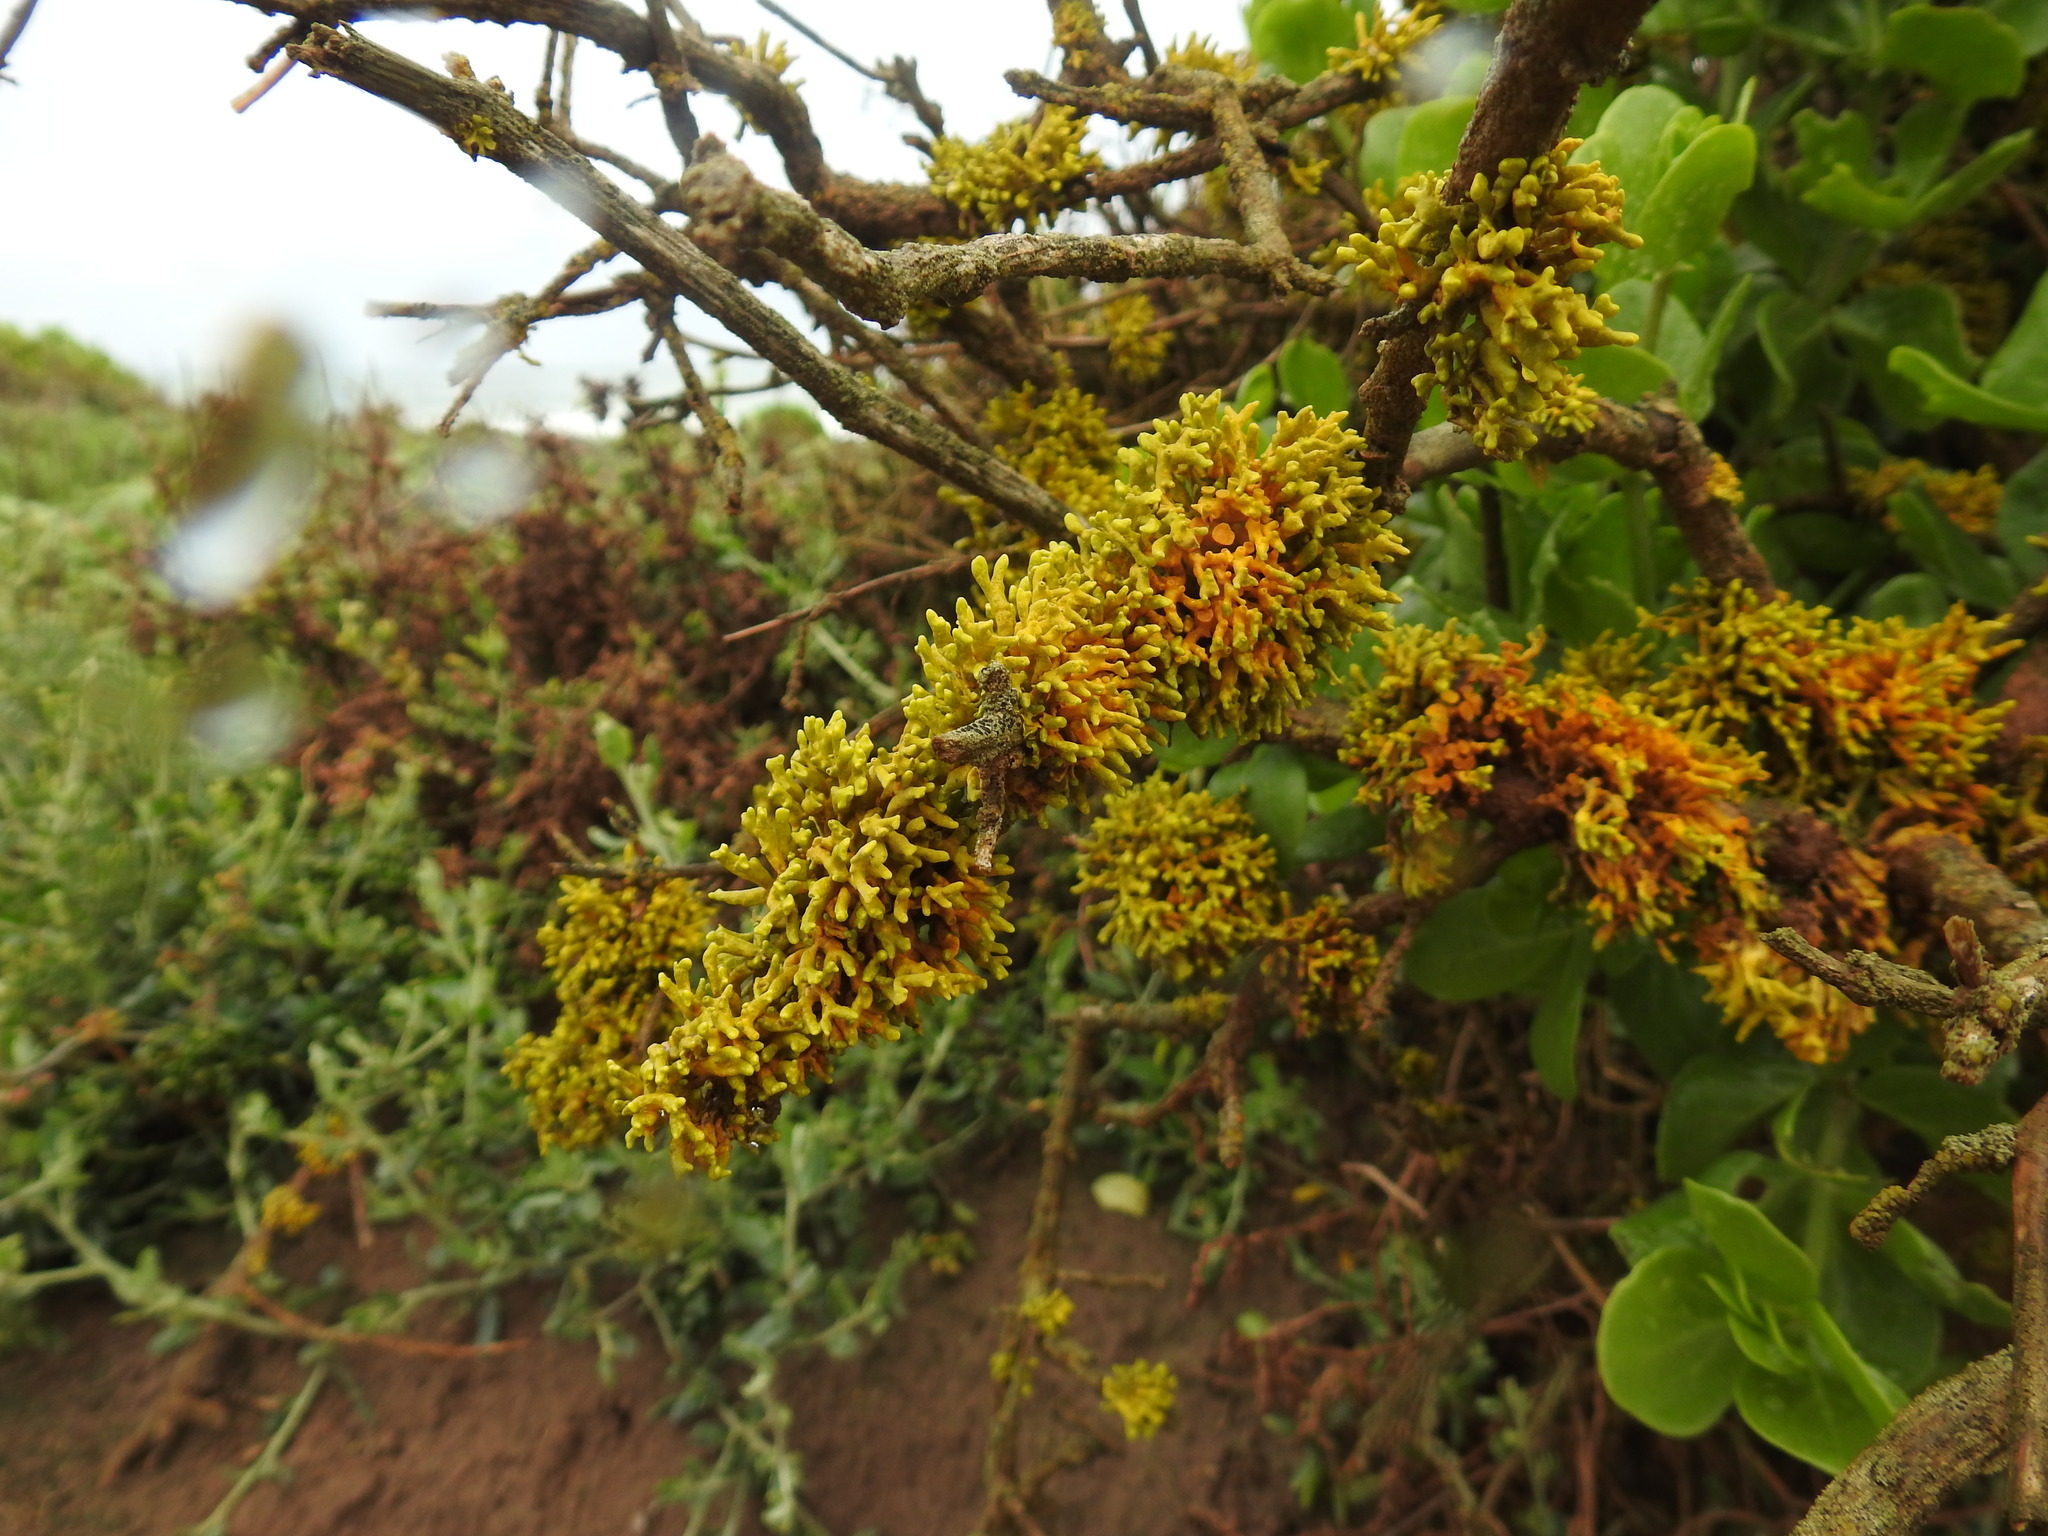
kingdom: Fungi
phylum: Ascomycota
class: Lecanoromycetes
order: Teloschistales
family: Teloschistaceae
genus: Dufourea
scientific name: Dufourea flammea
